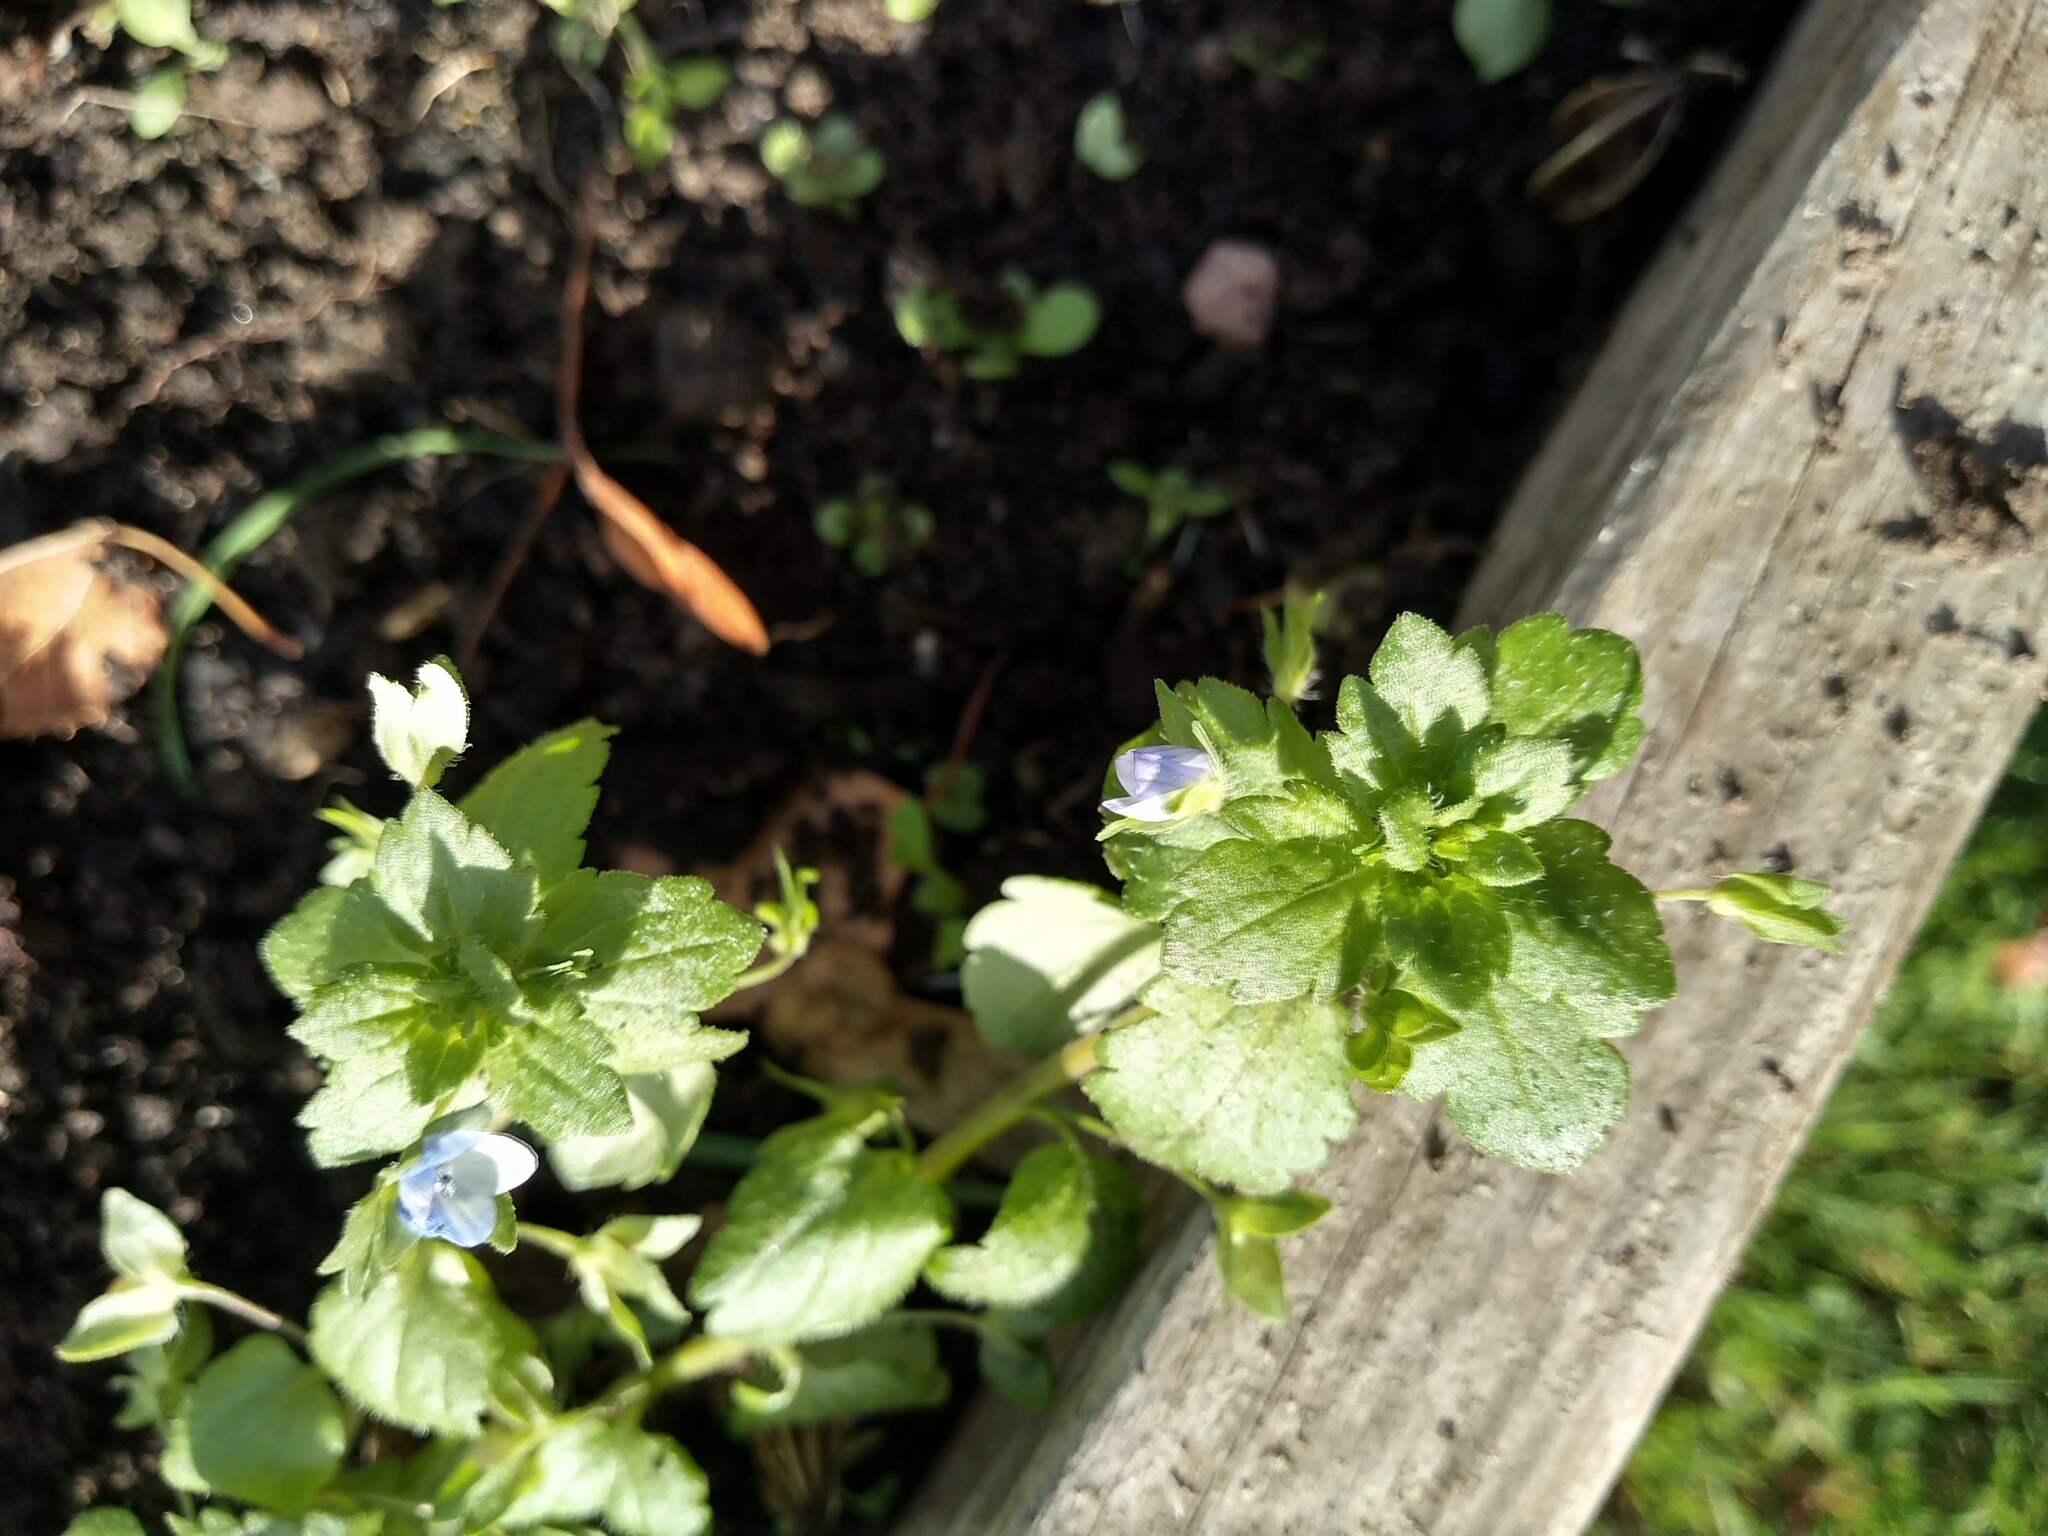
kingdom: Plantae
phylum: Tracheophyta
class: Magnoliopsida
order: Lamiales
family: Plantaginaceae
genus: Veronica
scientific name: Veronica persica
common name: Common field-speedwell
